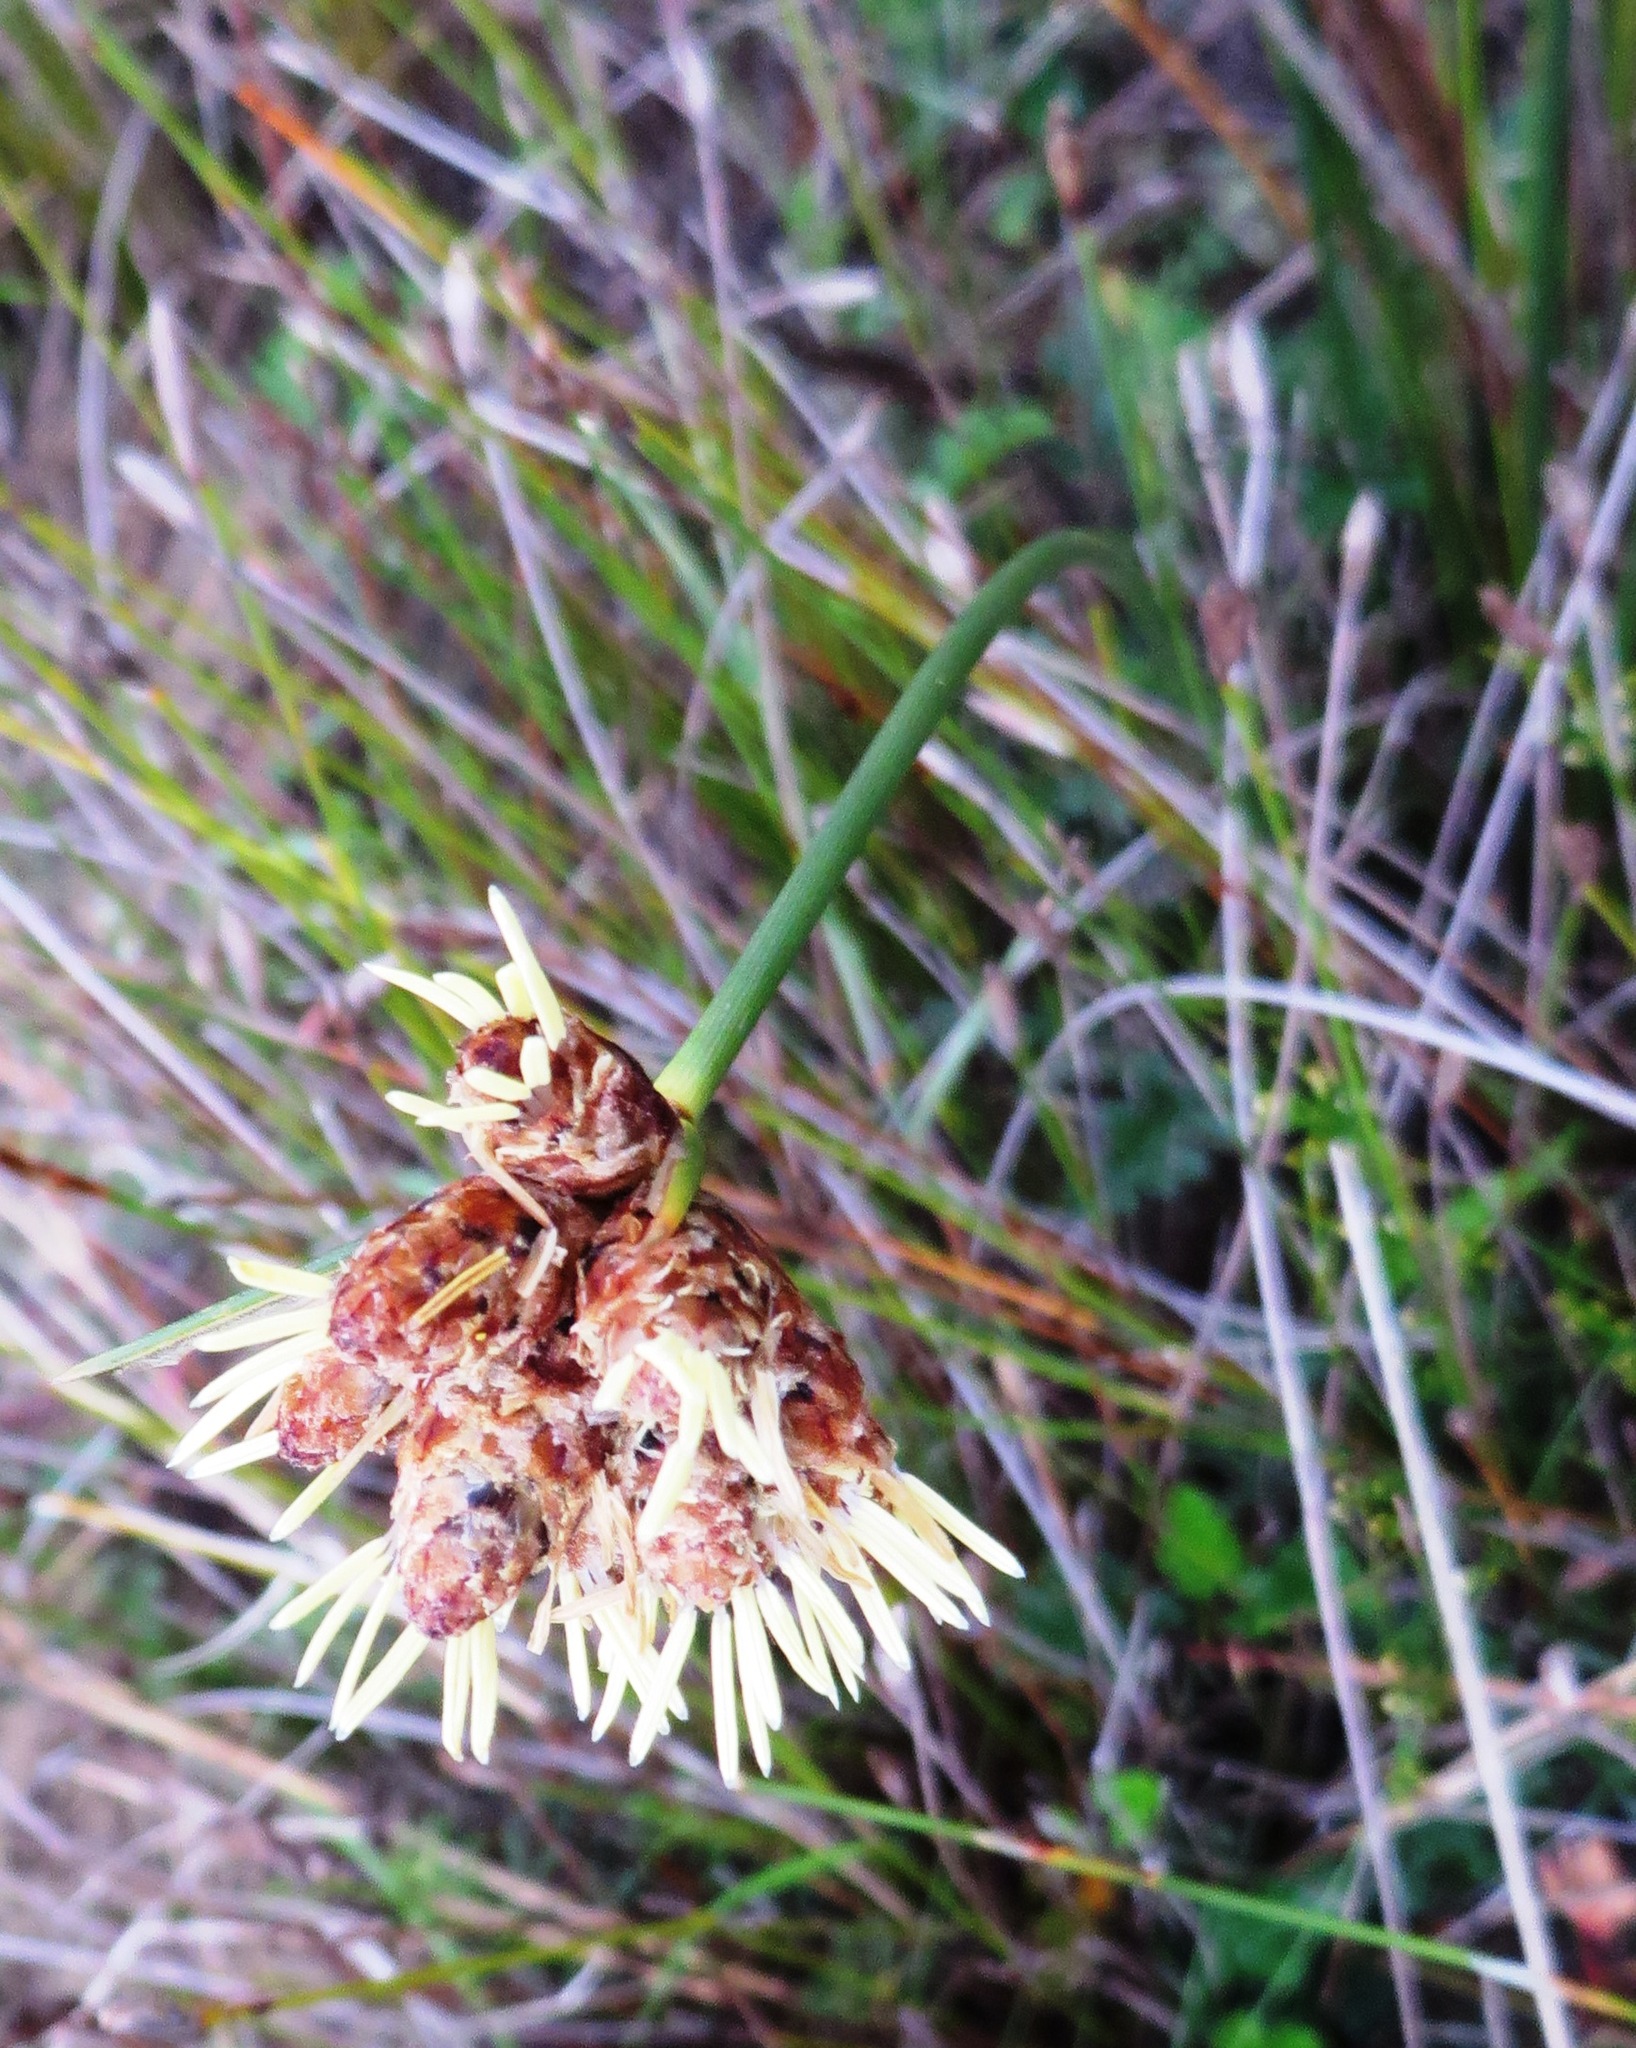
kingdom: Plantae
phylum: Tracheophyta
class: Liliopsida
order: Poales
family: Cyperaceae
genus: Hellmuthia
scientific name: Hellmuthia membranacea
